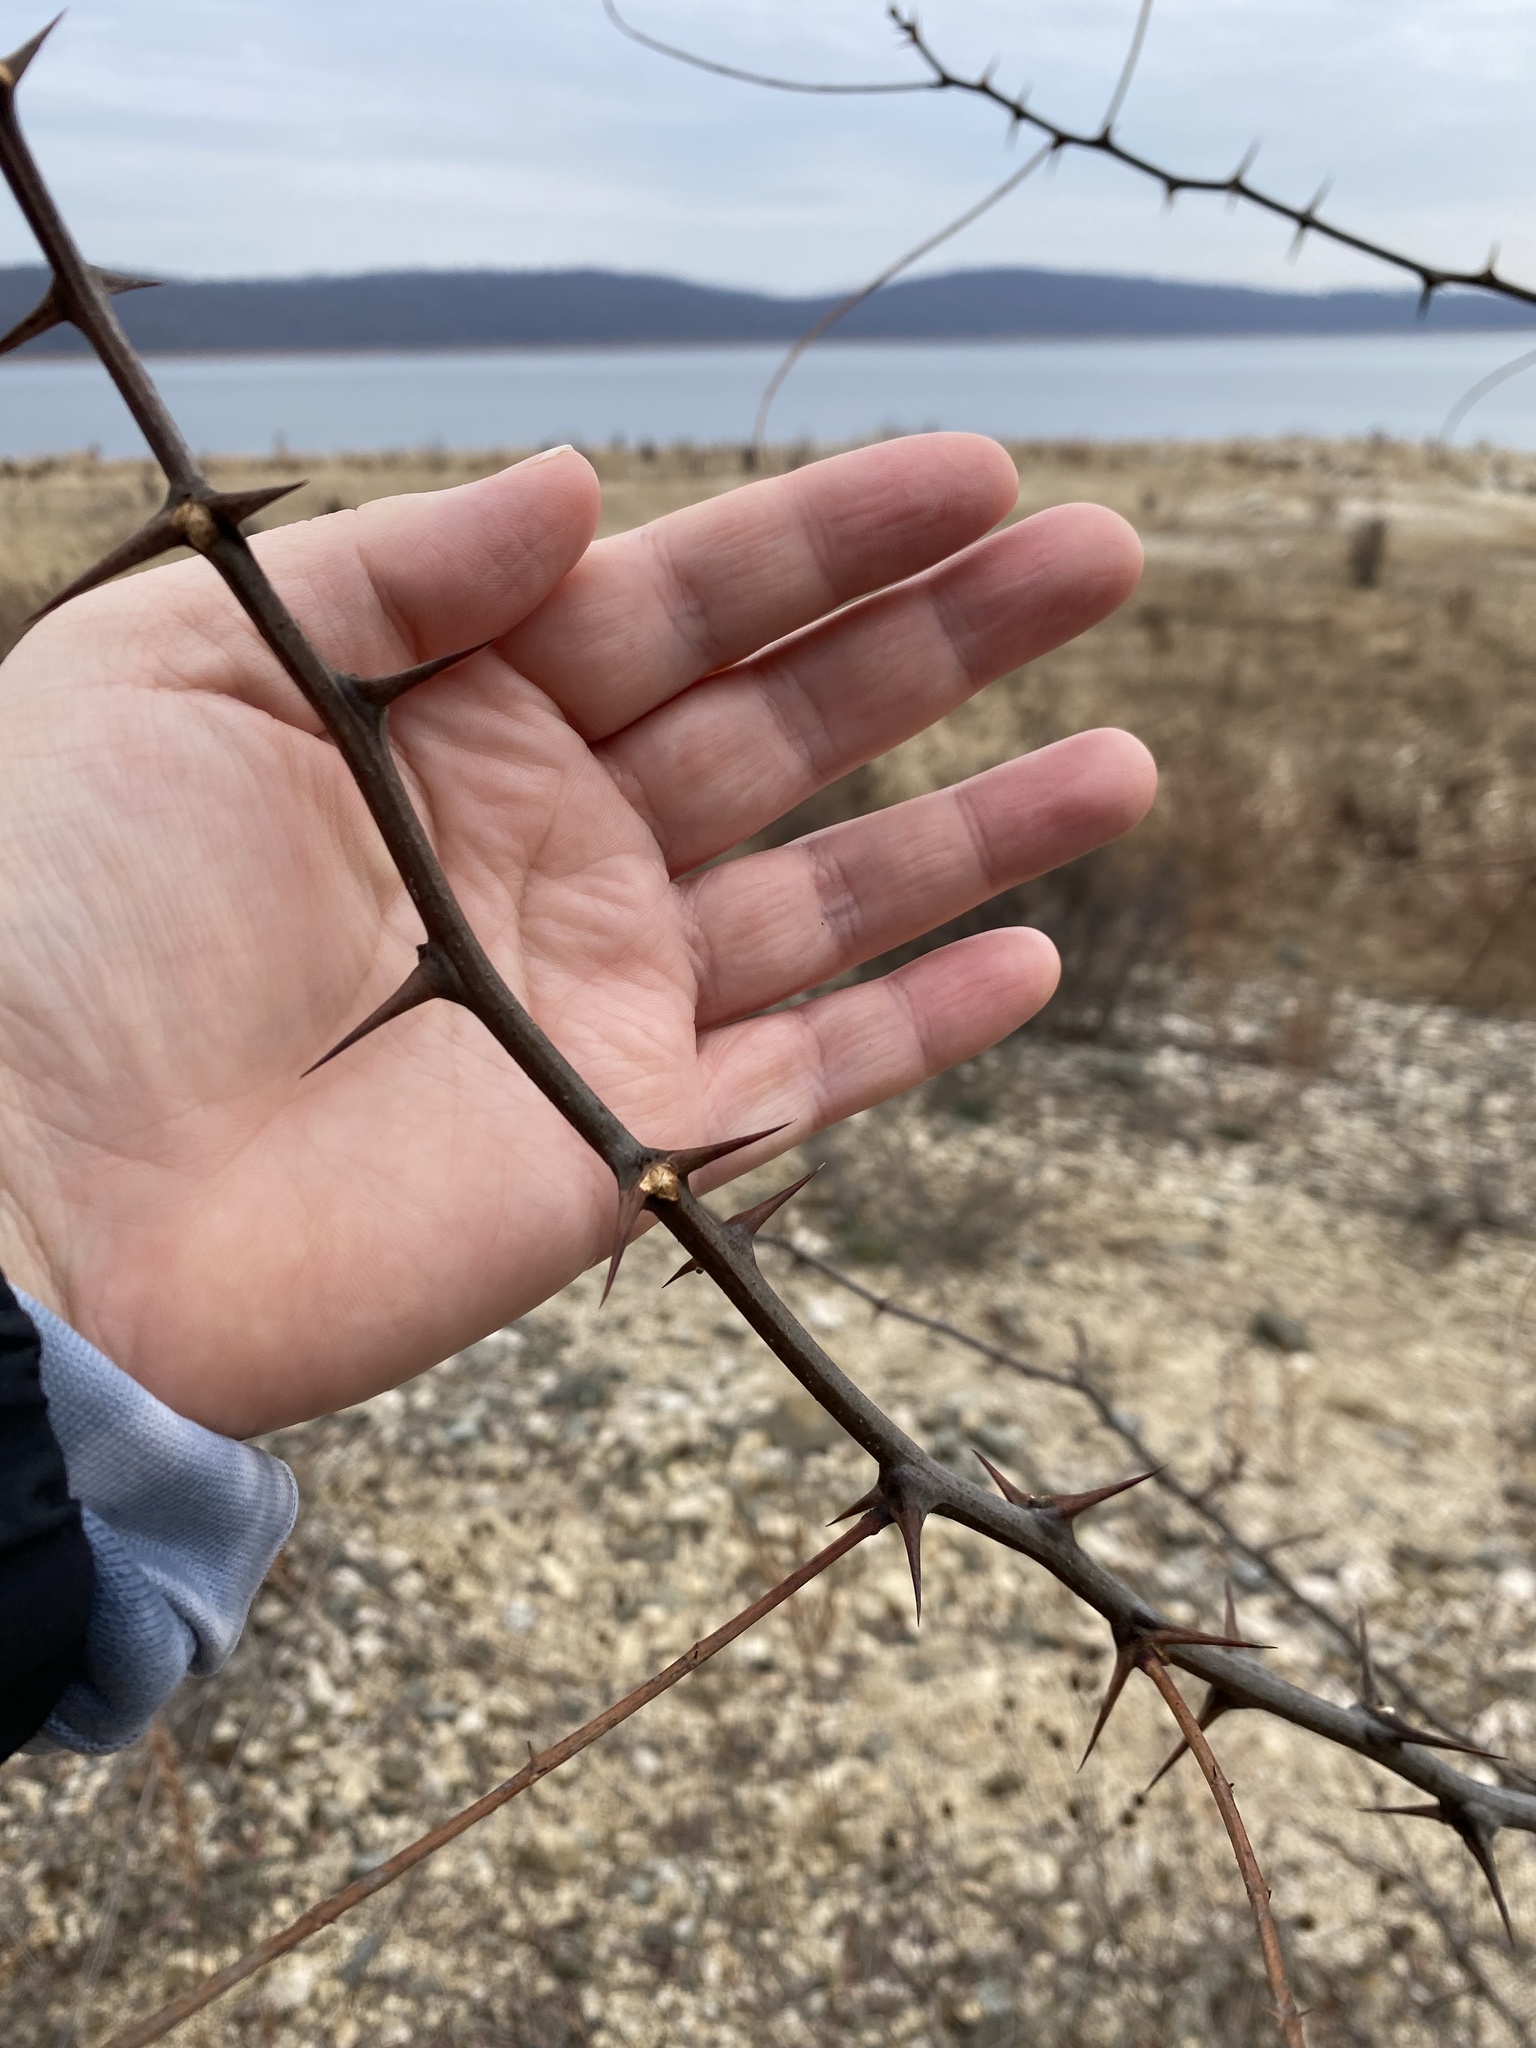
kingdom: Plantae
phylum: Tracheophyta
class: Magnoliopsida
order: Fabales
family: Fabaceae
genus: Robinia
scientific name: Robinia pseudoacacia
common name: Black locust
